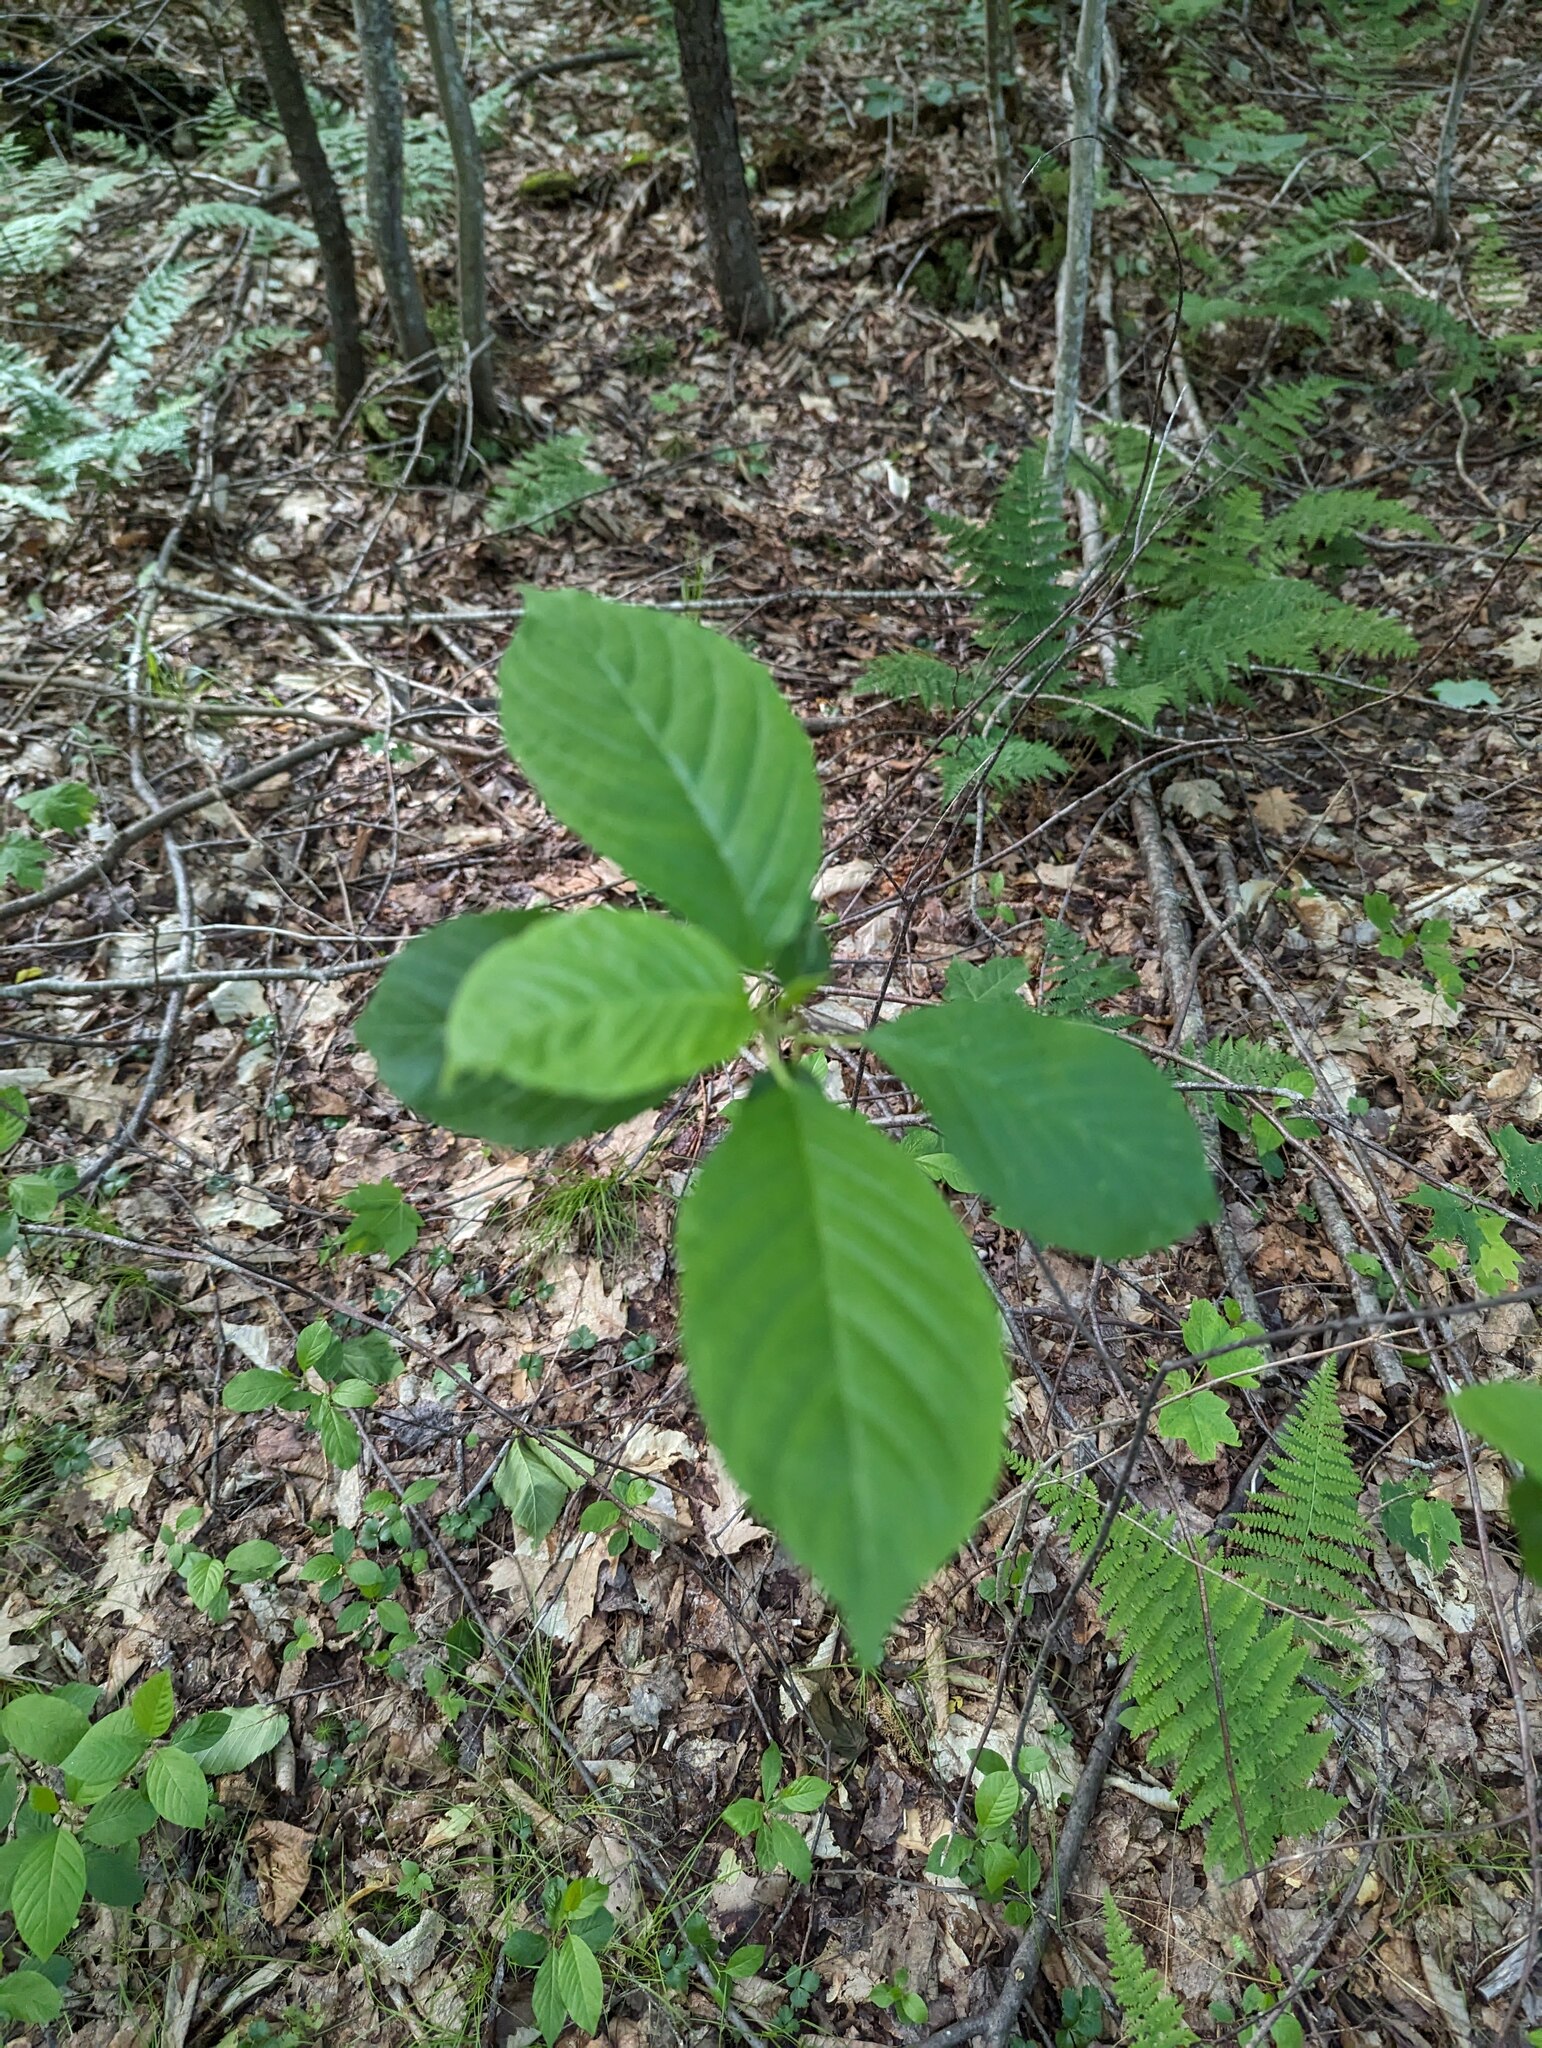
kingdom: Plantae
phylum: Tracheophyta
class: Magnoliopsida
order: Rosales
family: Rhamnaceae
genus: Frangula
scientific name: Frangula alnus
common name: Alder buckthorn
